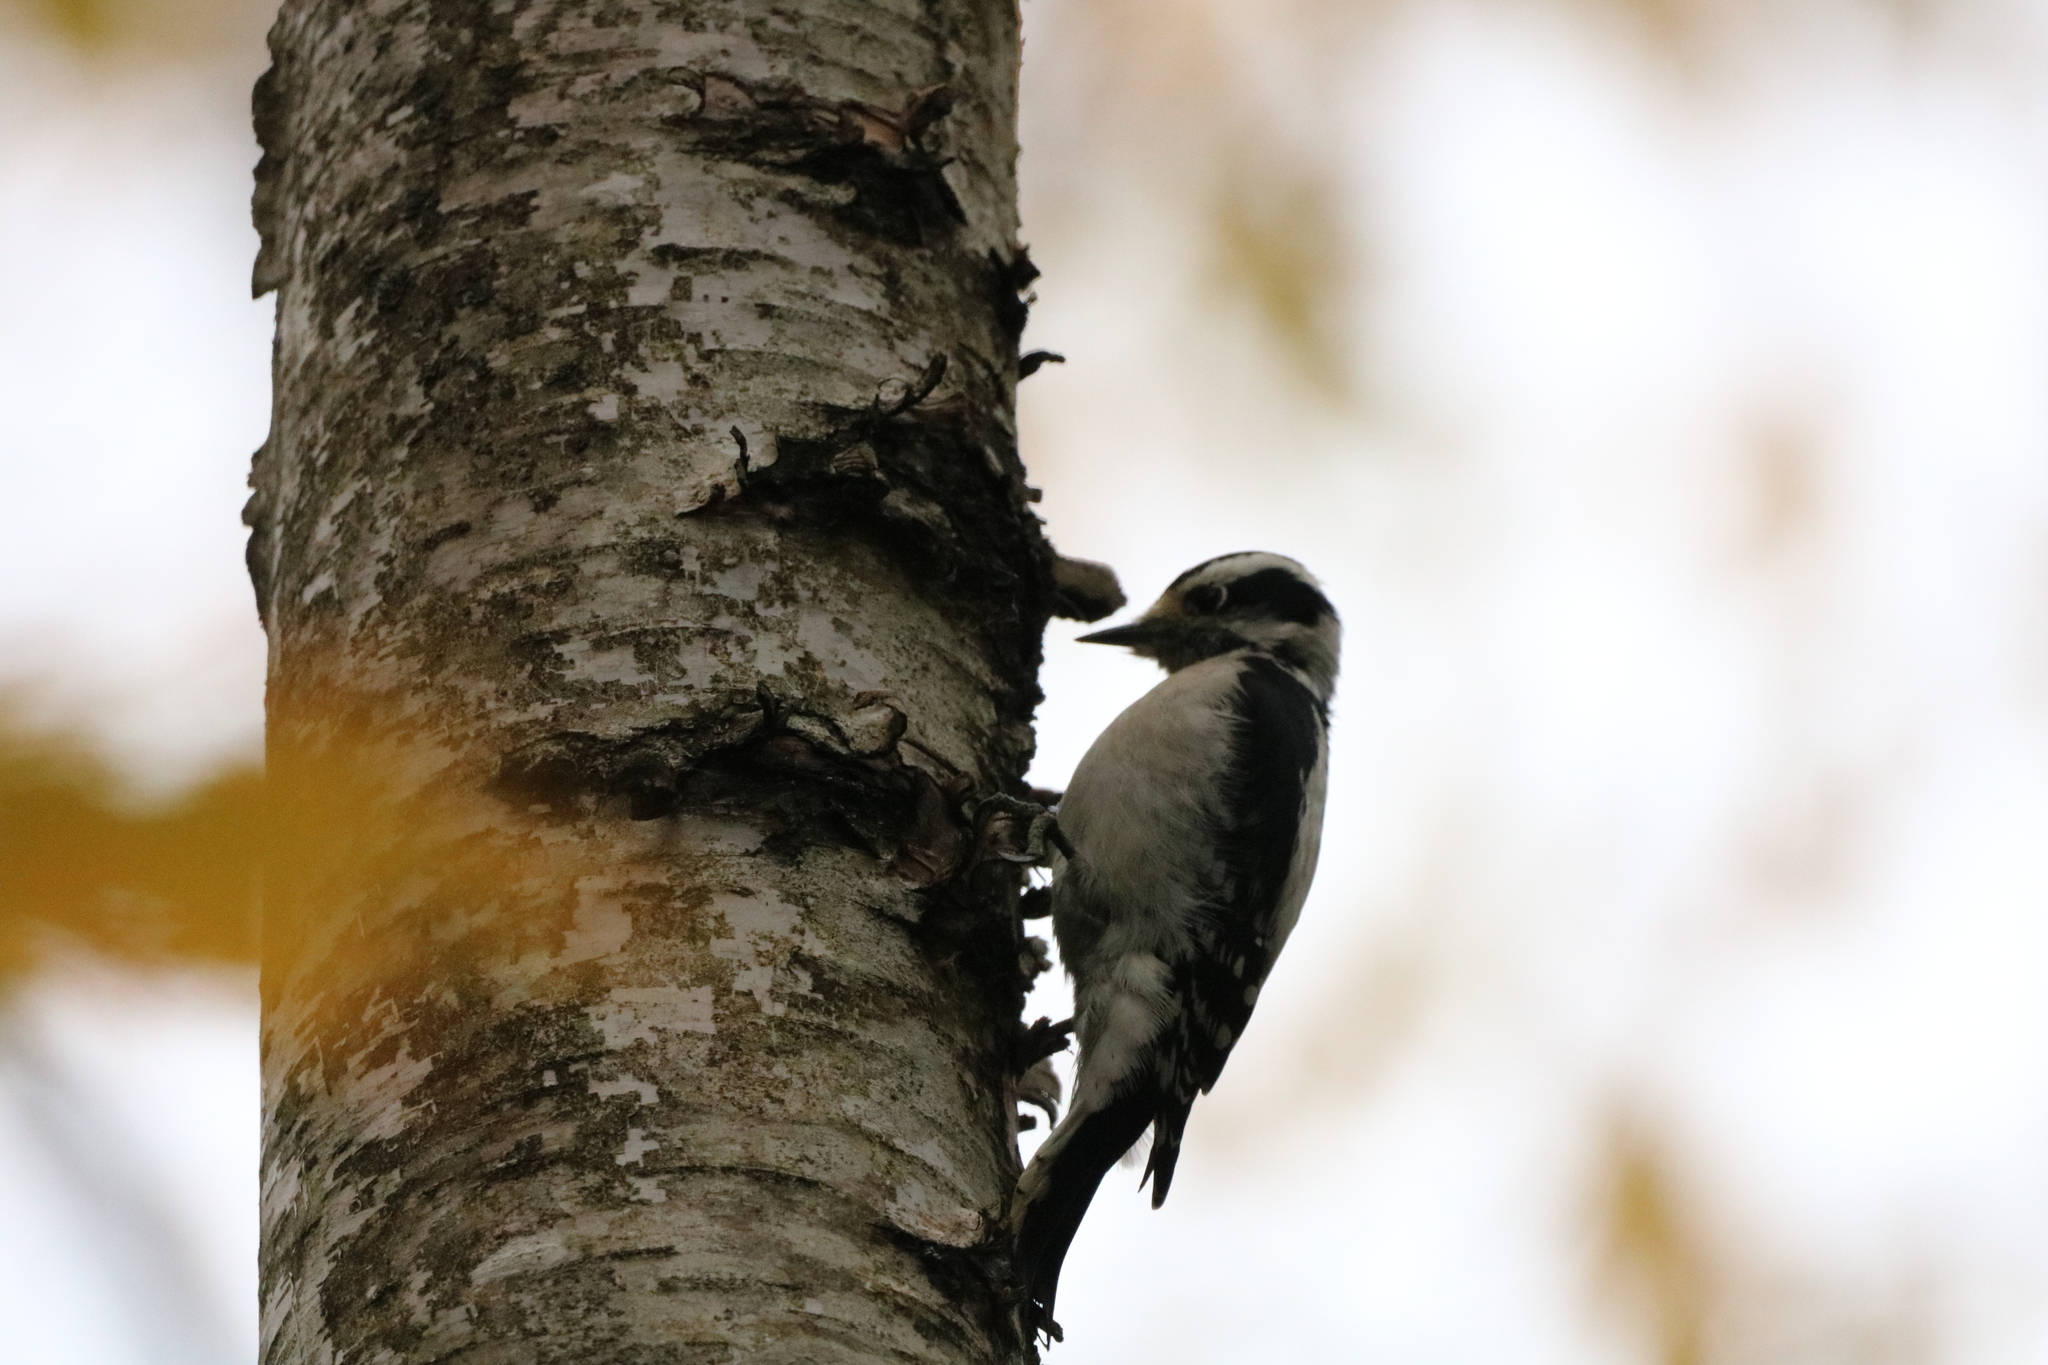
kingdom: Animalia
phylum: Chordata
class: Aves
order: Piciformes
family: Picidae
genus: Dryobates
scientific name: Dryobates pubescens
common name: Downy woodpecker
